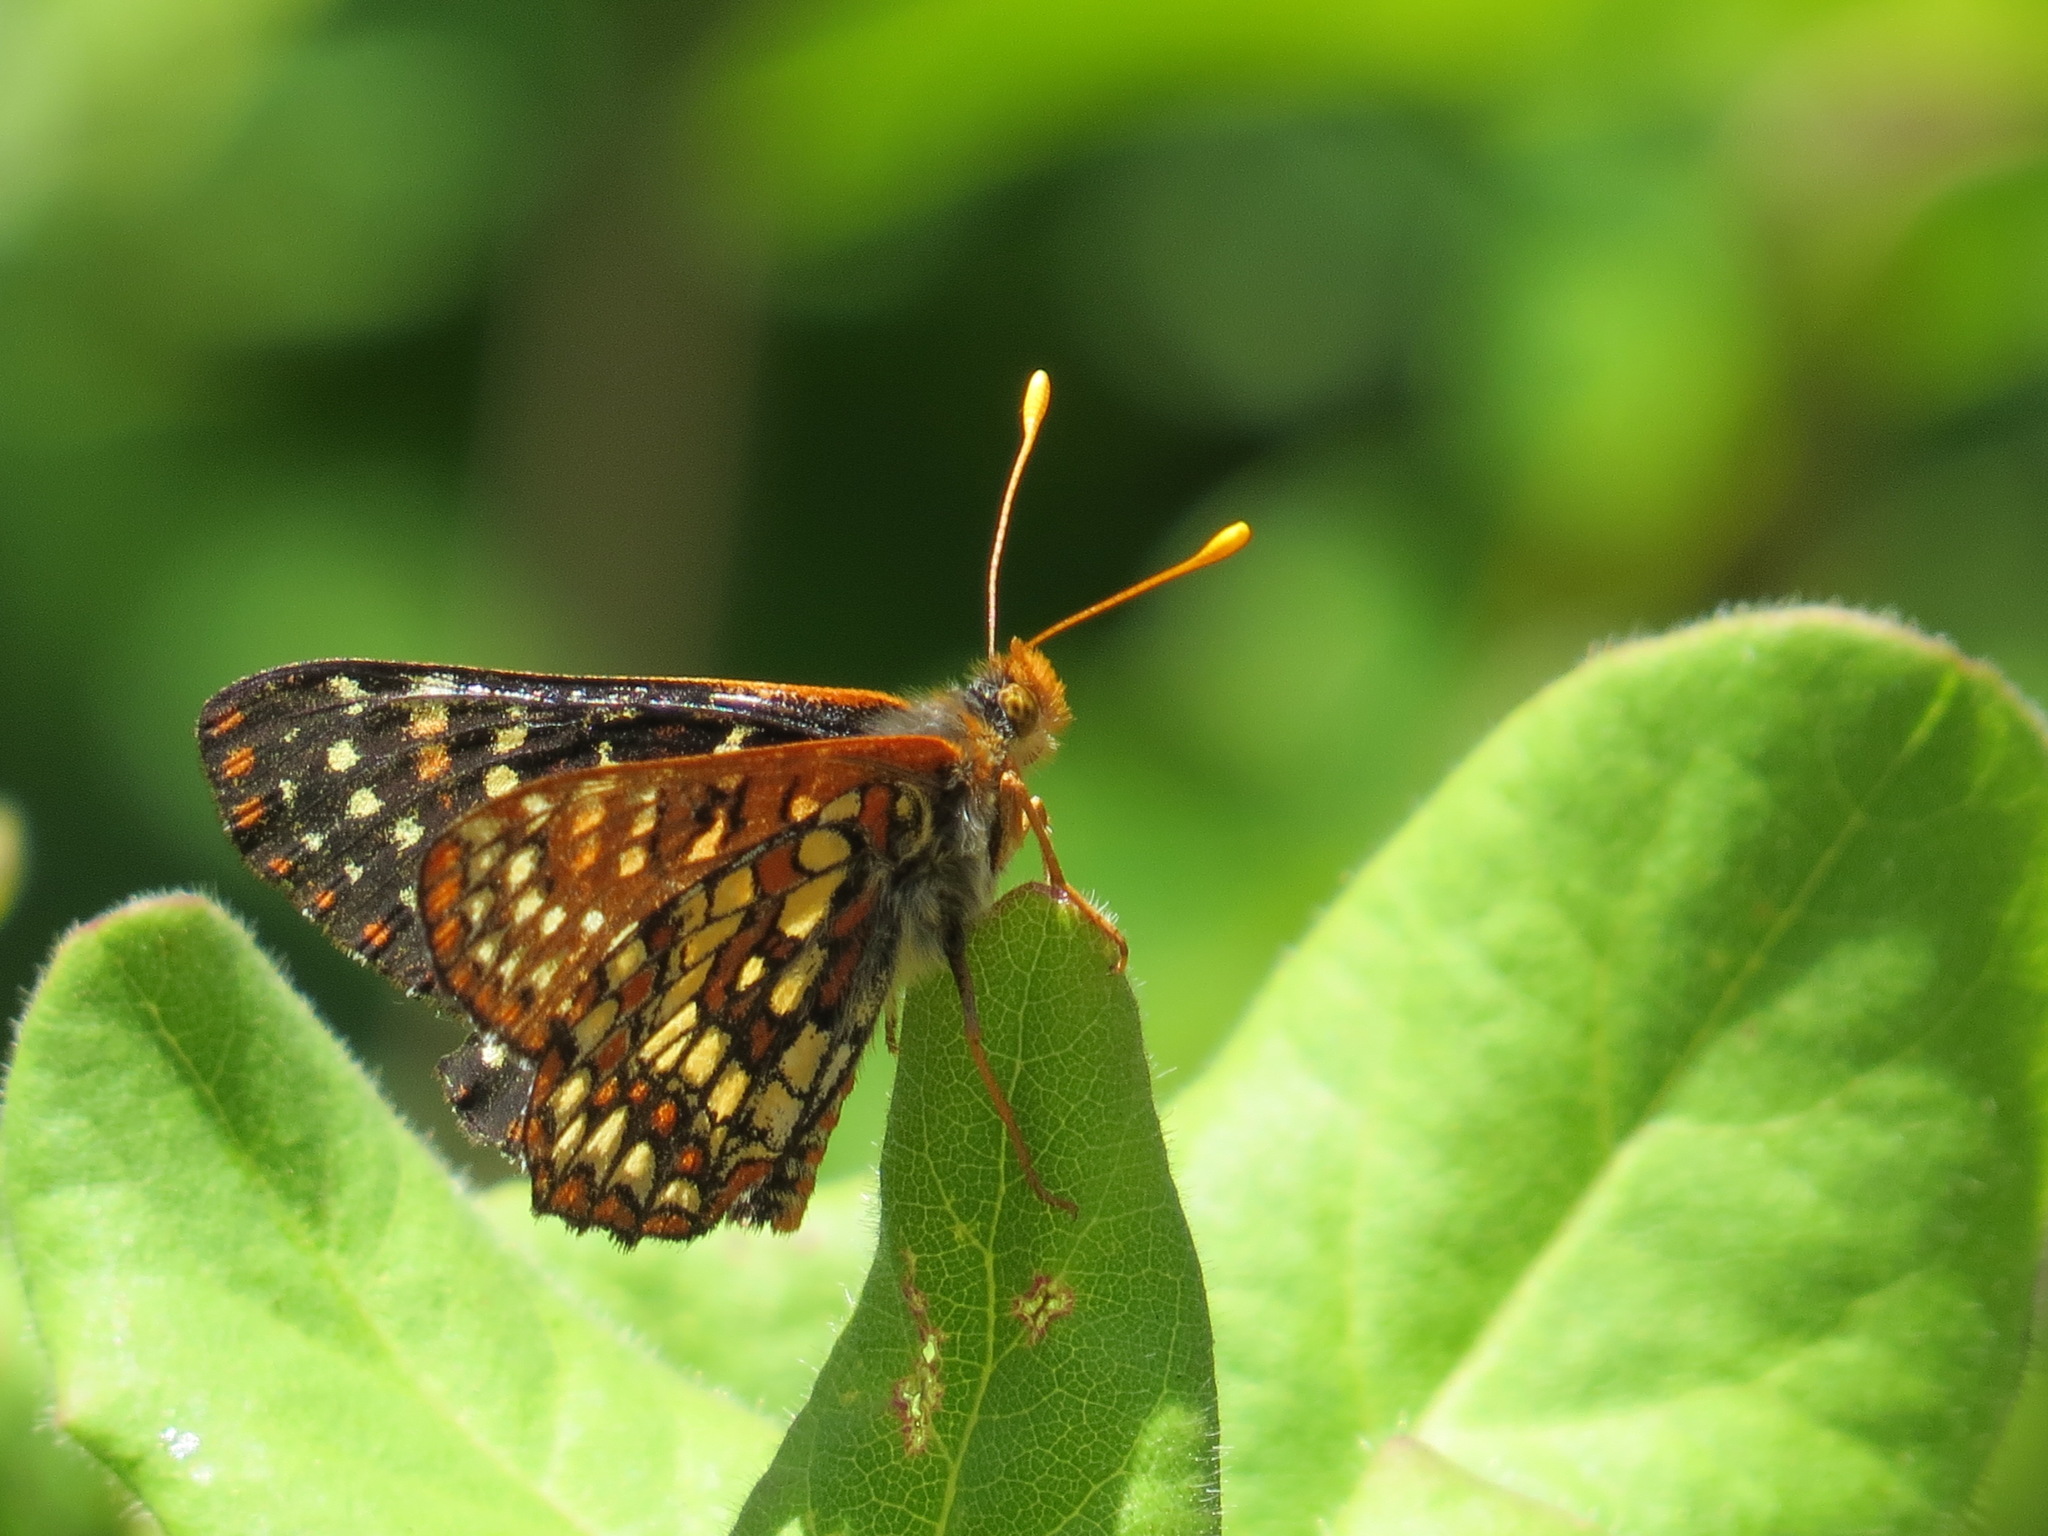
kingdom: Animalia
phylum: Arthropoda
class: Insecta
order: Lepidoptera
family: Nymphalidae
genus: Occidryas
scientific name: Occidryas chalcedona
